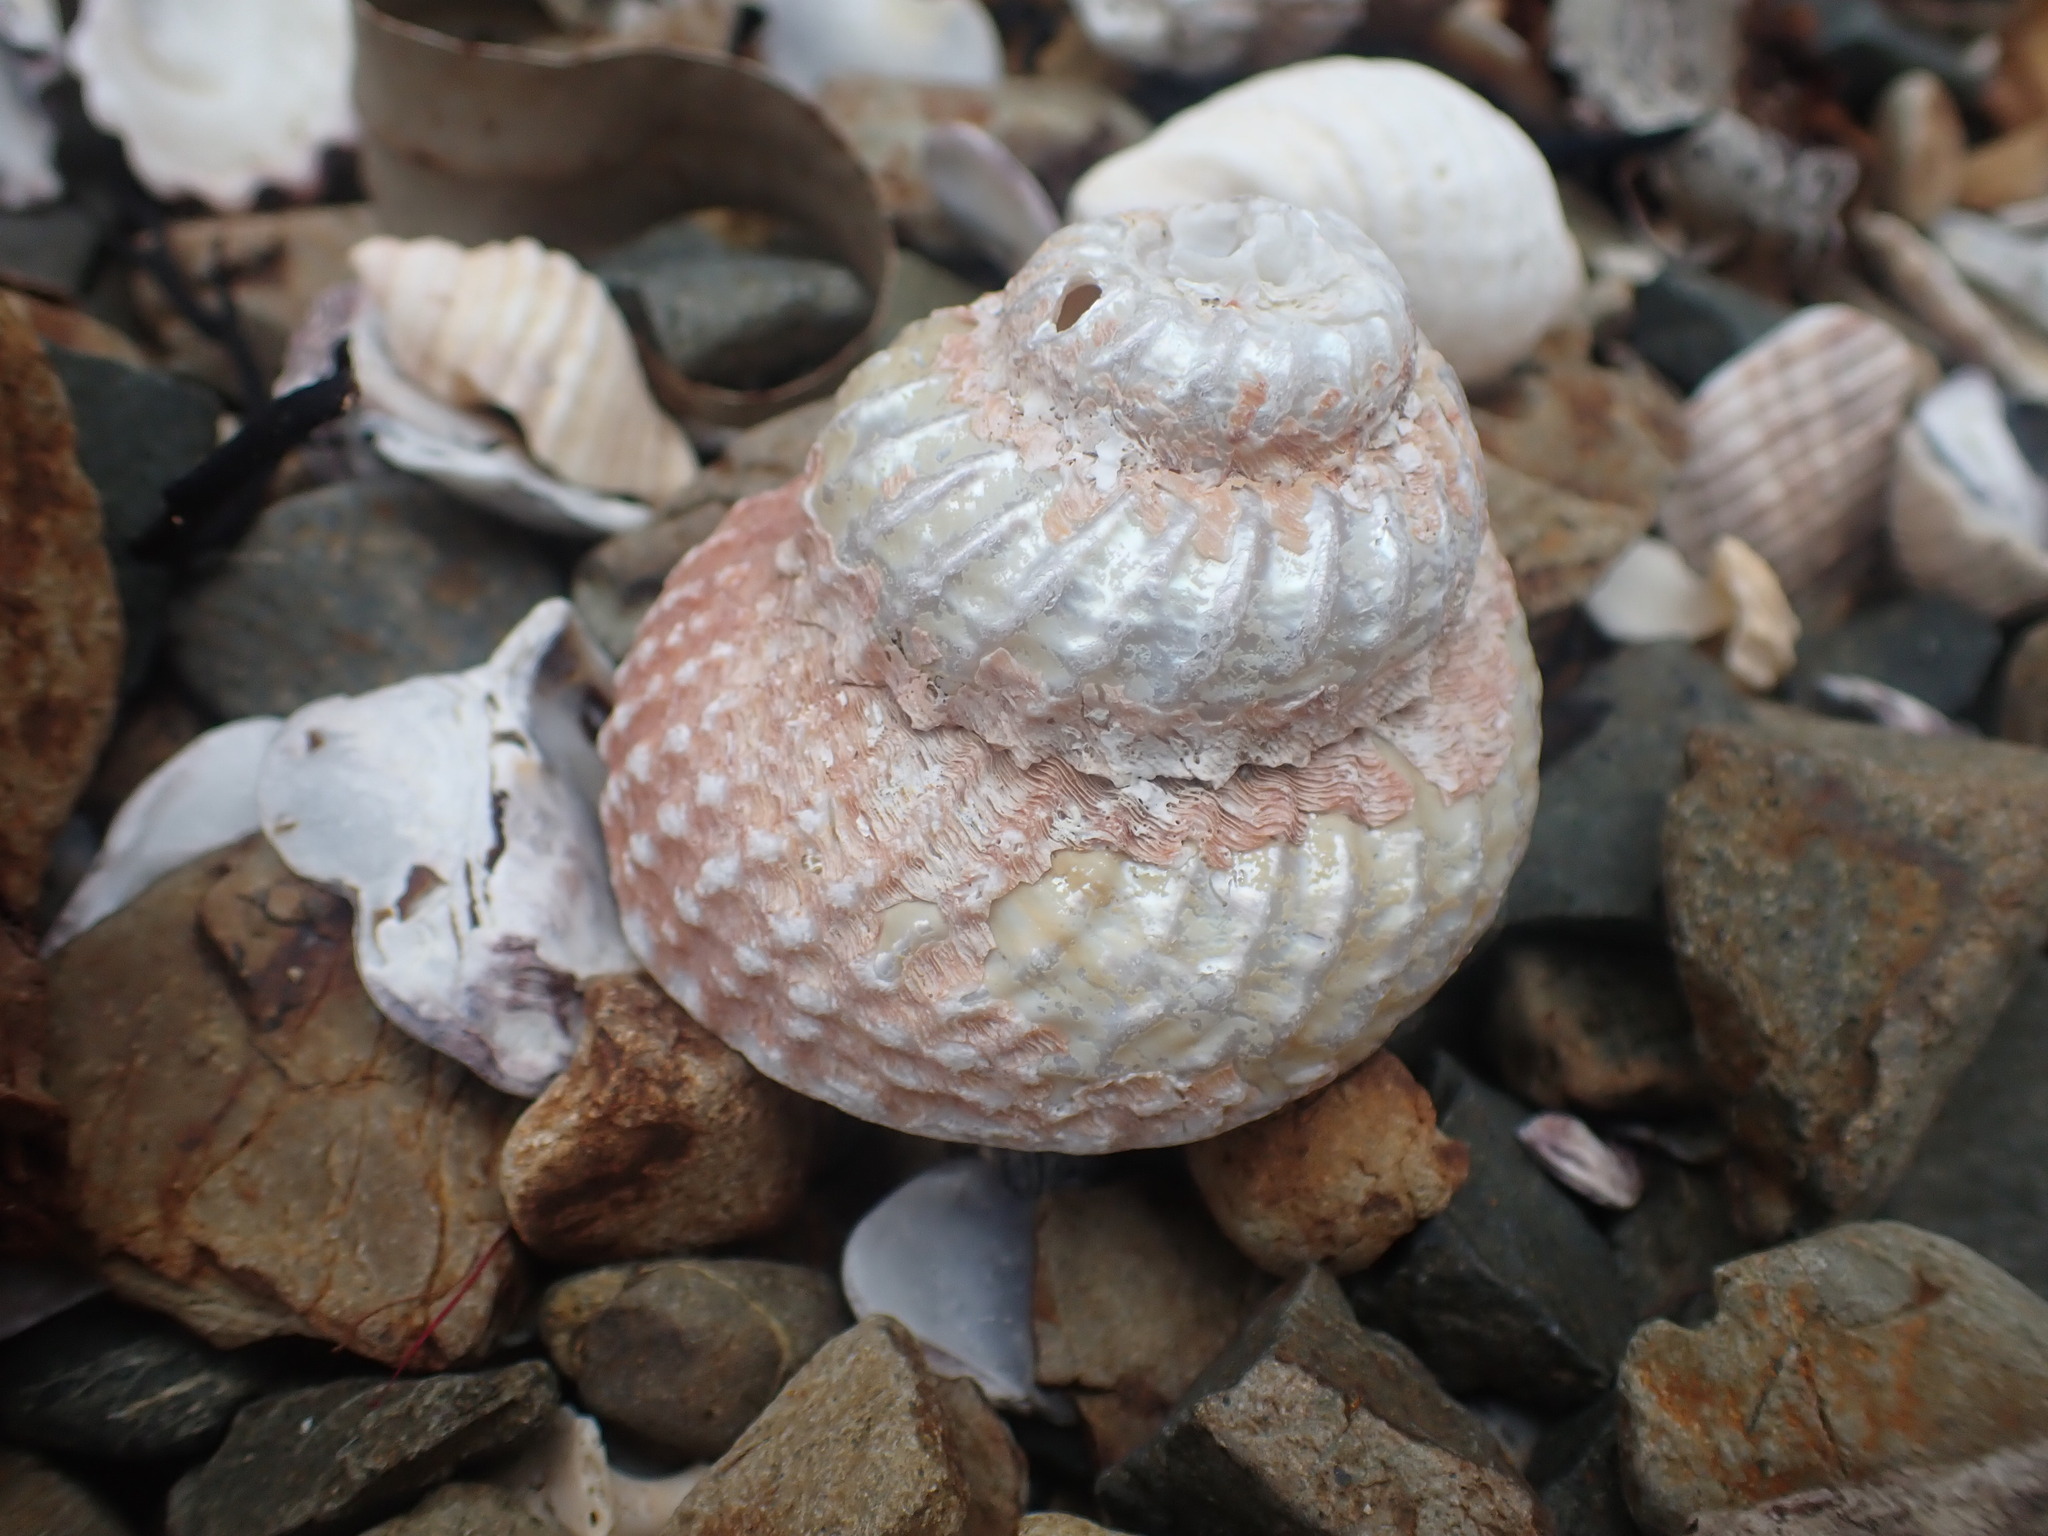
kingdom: Animalia
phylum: Mollusca
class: Gastropoda
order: Trochida
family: Turbinidae
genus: Cookia
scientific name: Cookia sulcata
